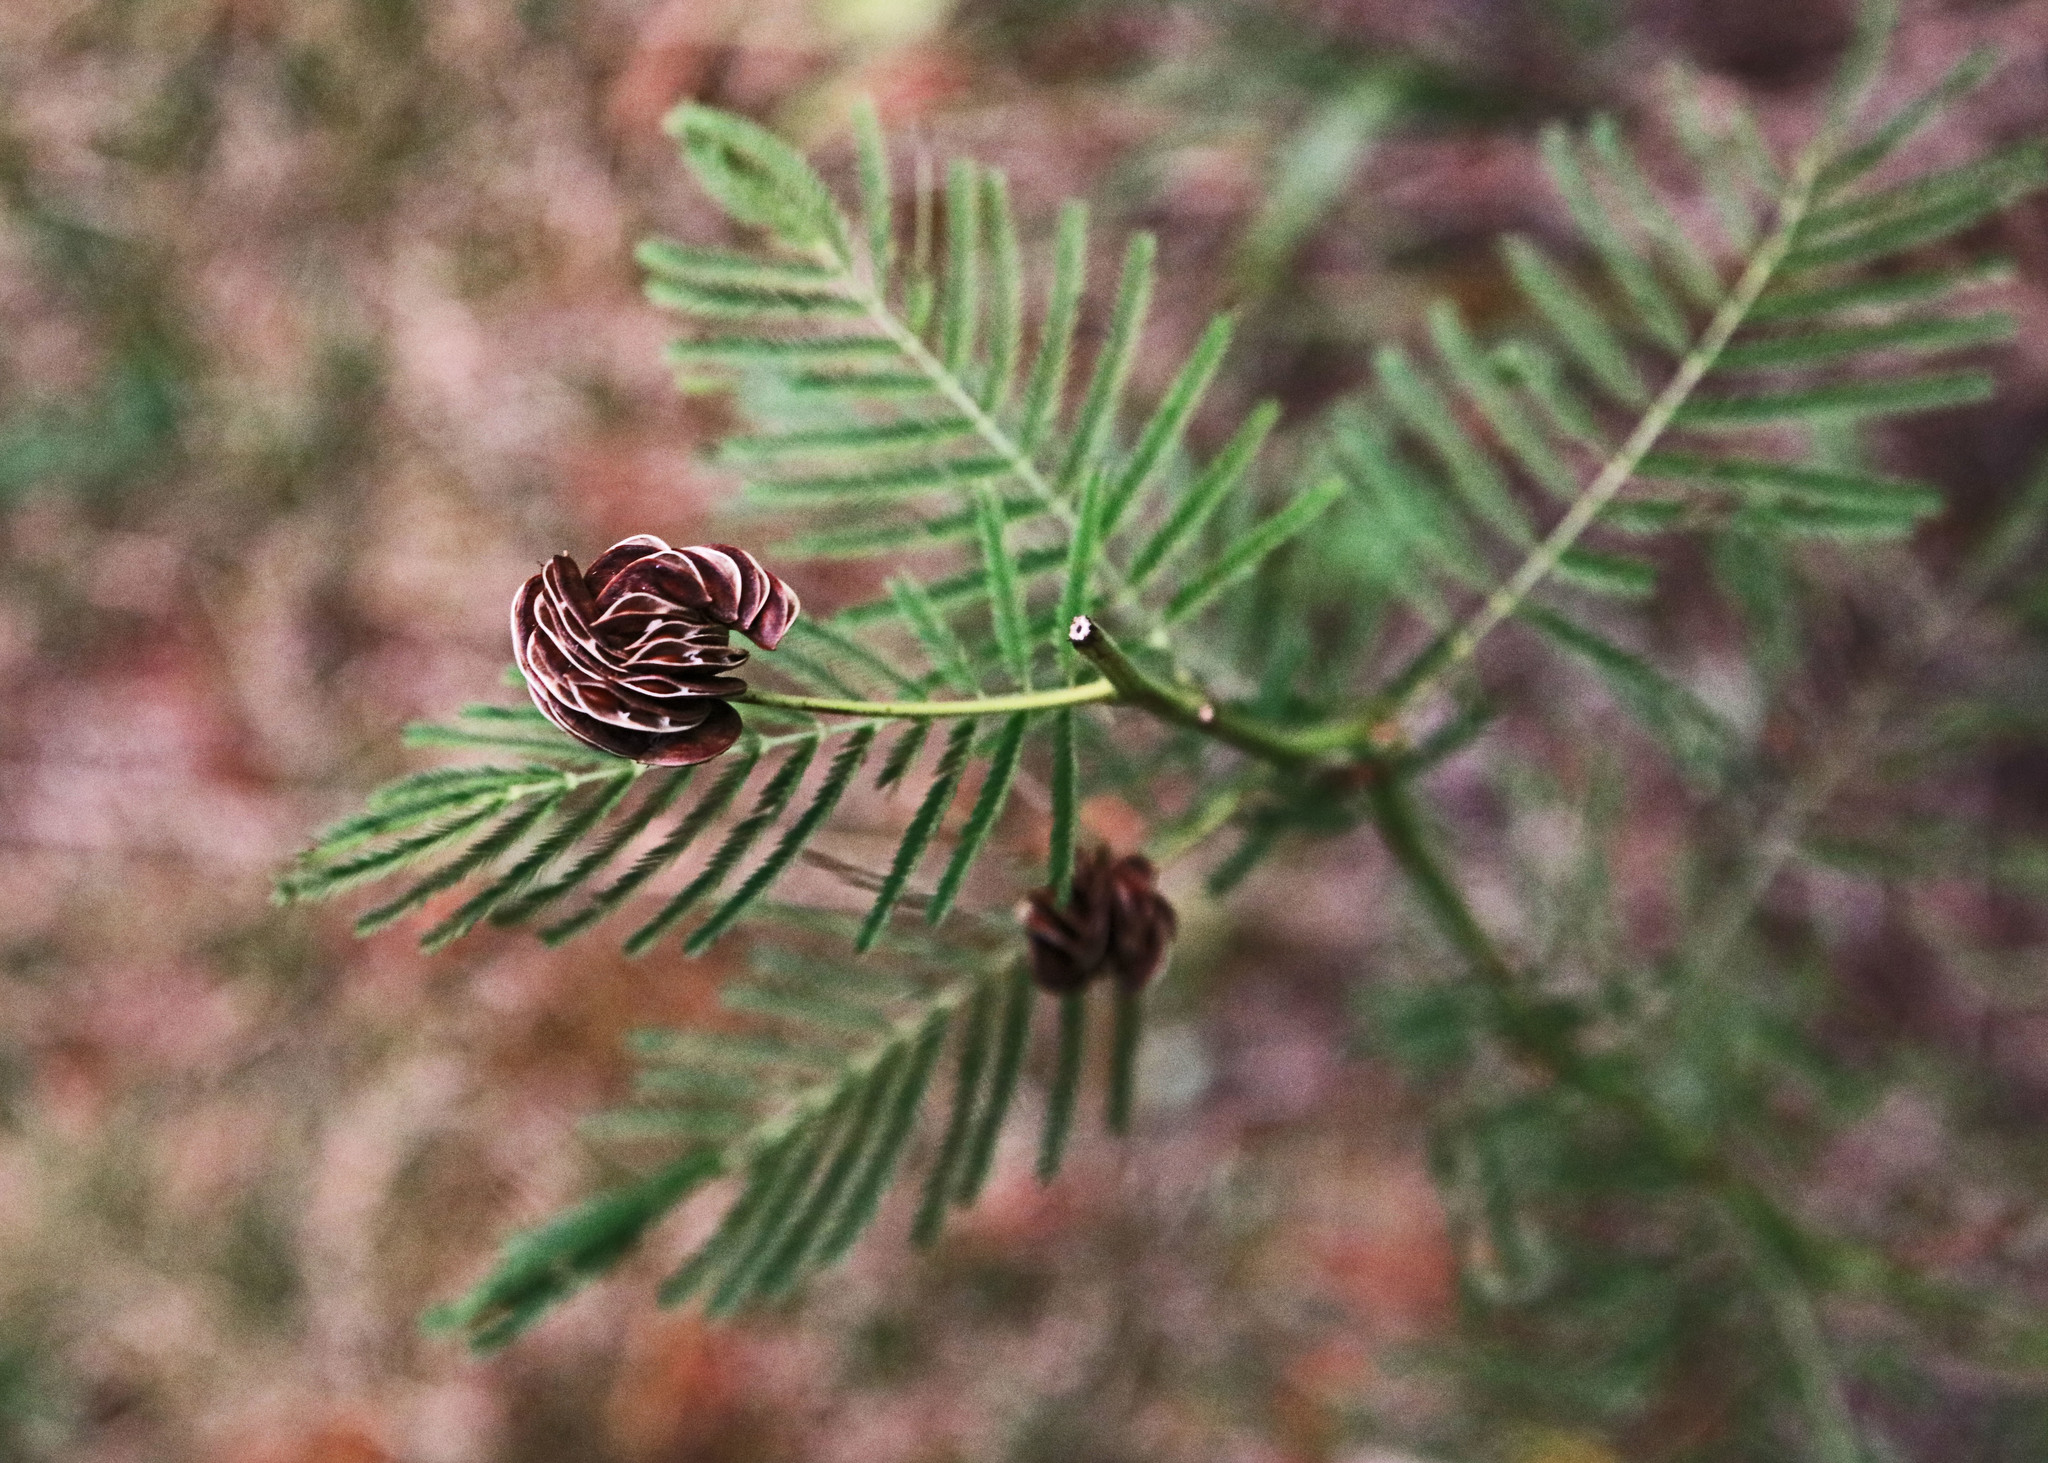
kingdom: Plantae
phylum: Tracheophyta
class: Magnoliopsida
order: Fabales
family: Fabaceae
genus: Desmanthus
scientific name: Desmanthus illinoensis
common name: Illinois bundle-flower
